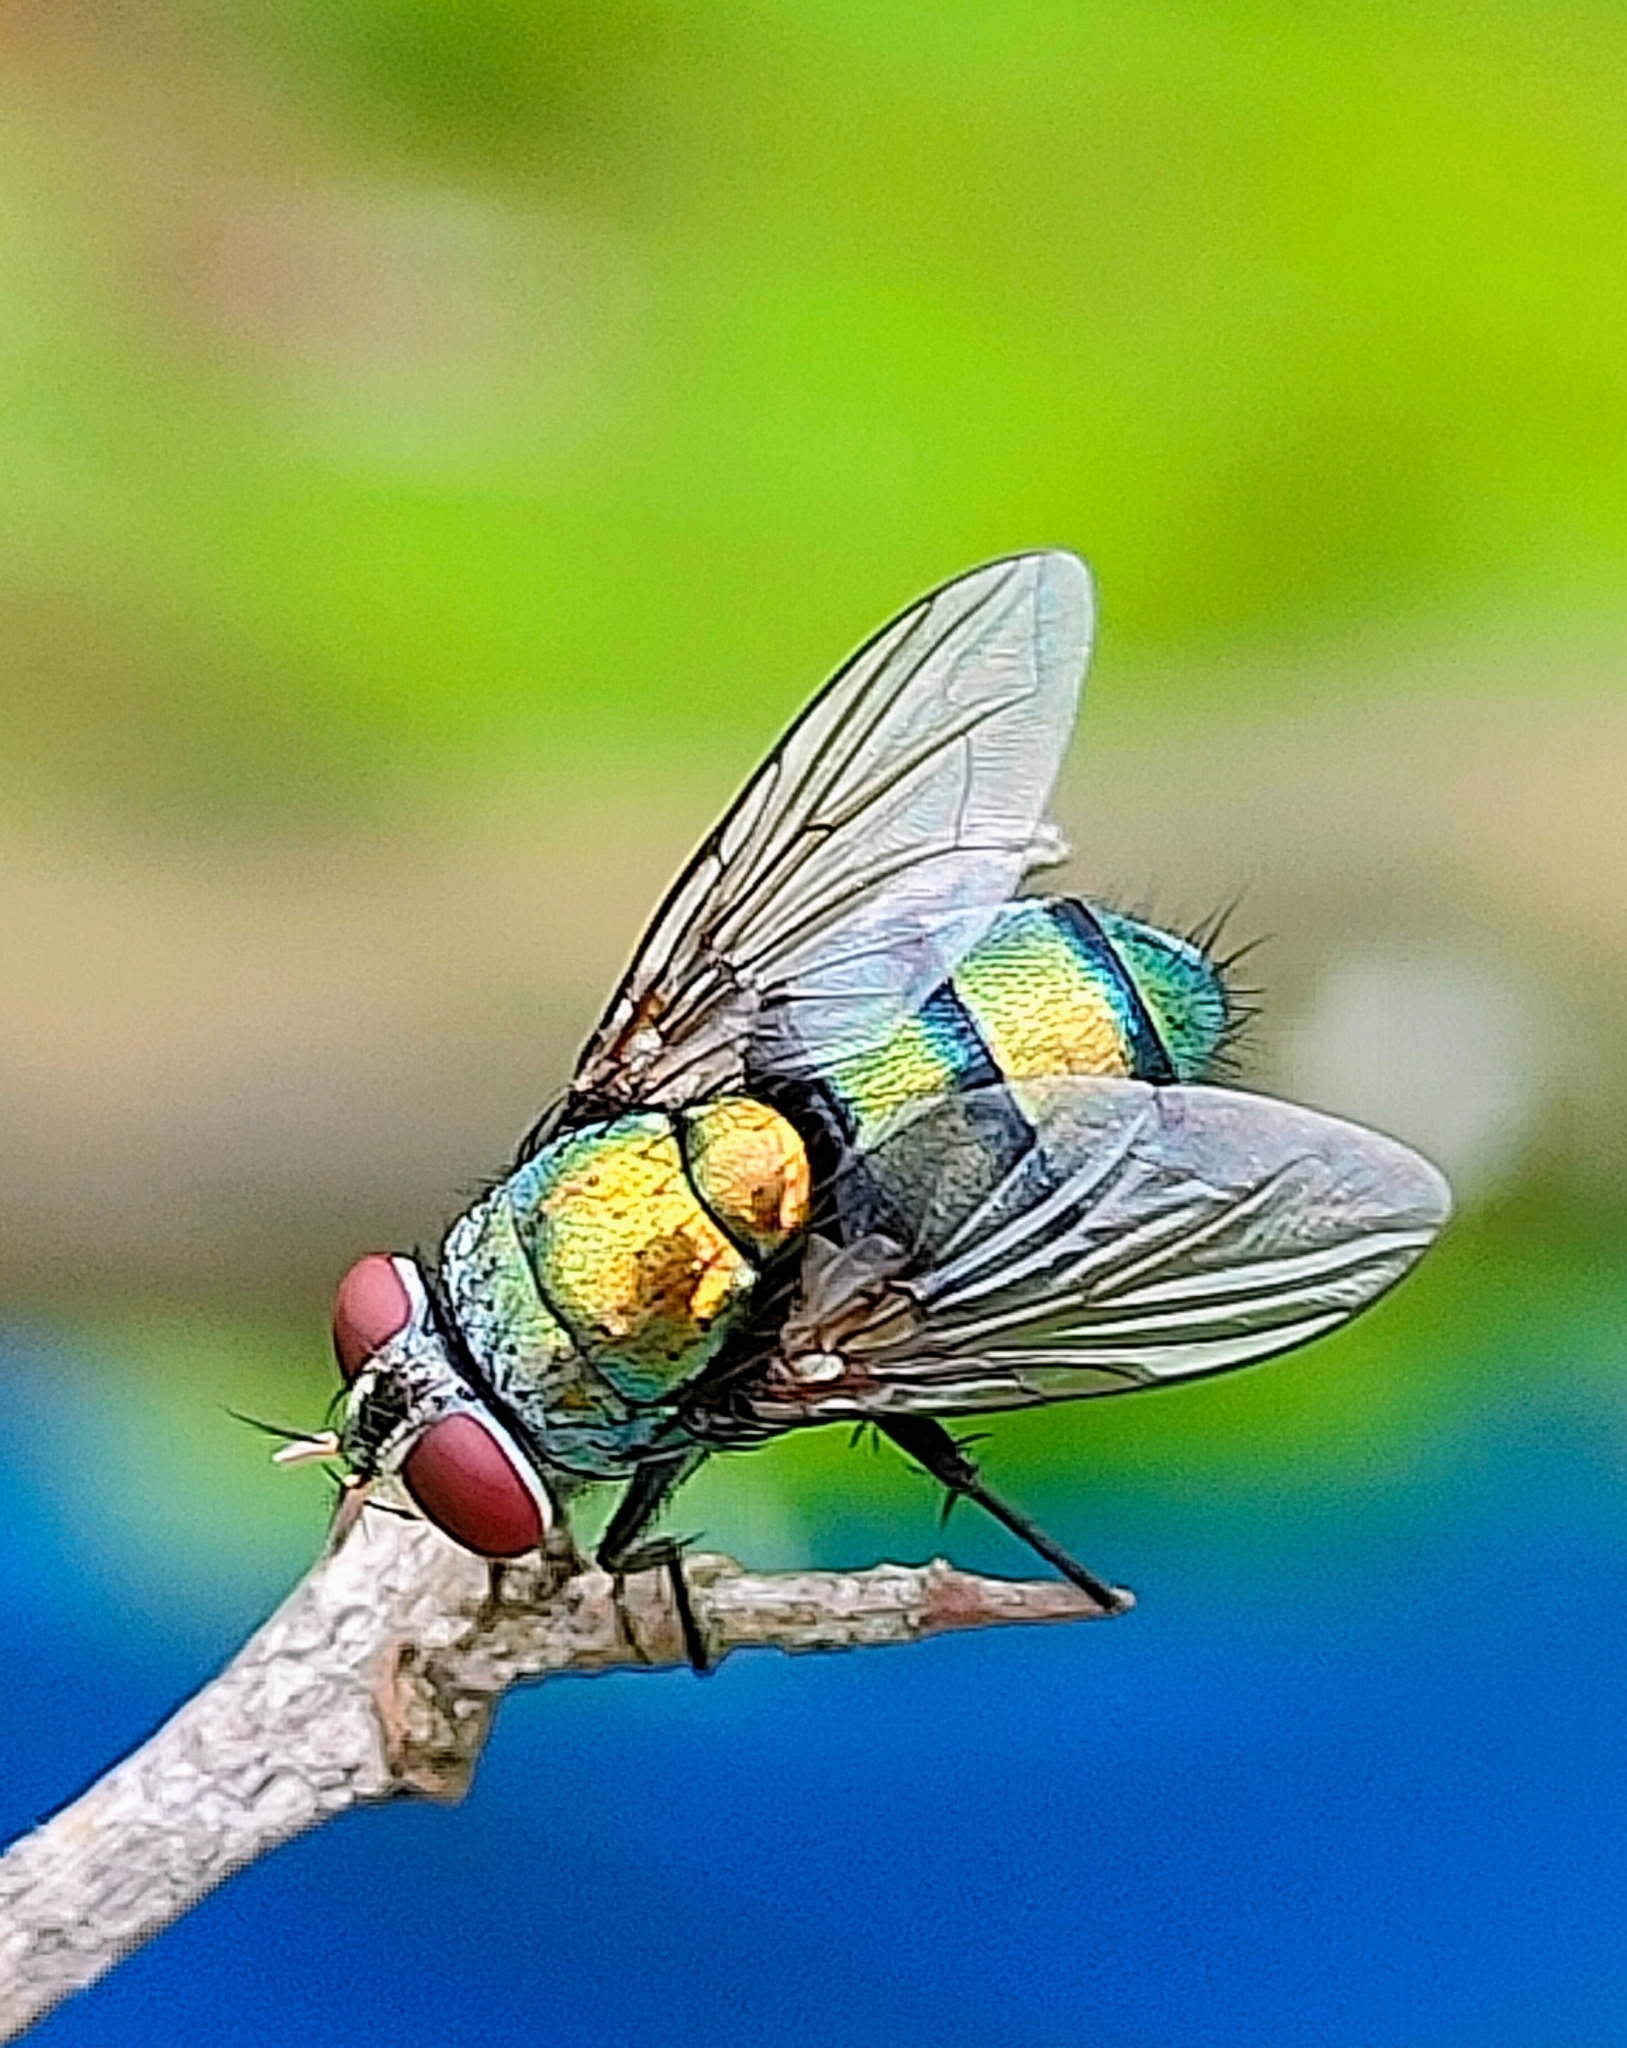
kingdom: Animalia
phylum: Arthropoda
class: Insecta
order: Diptera
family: Calliphoridae
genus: Lucilia
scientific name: Lucilia sericata
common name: Blow fly
